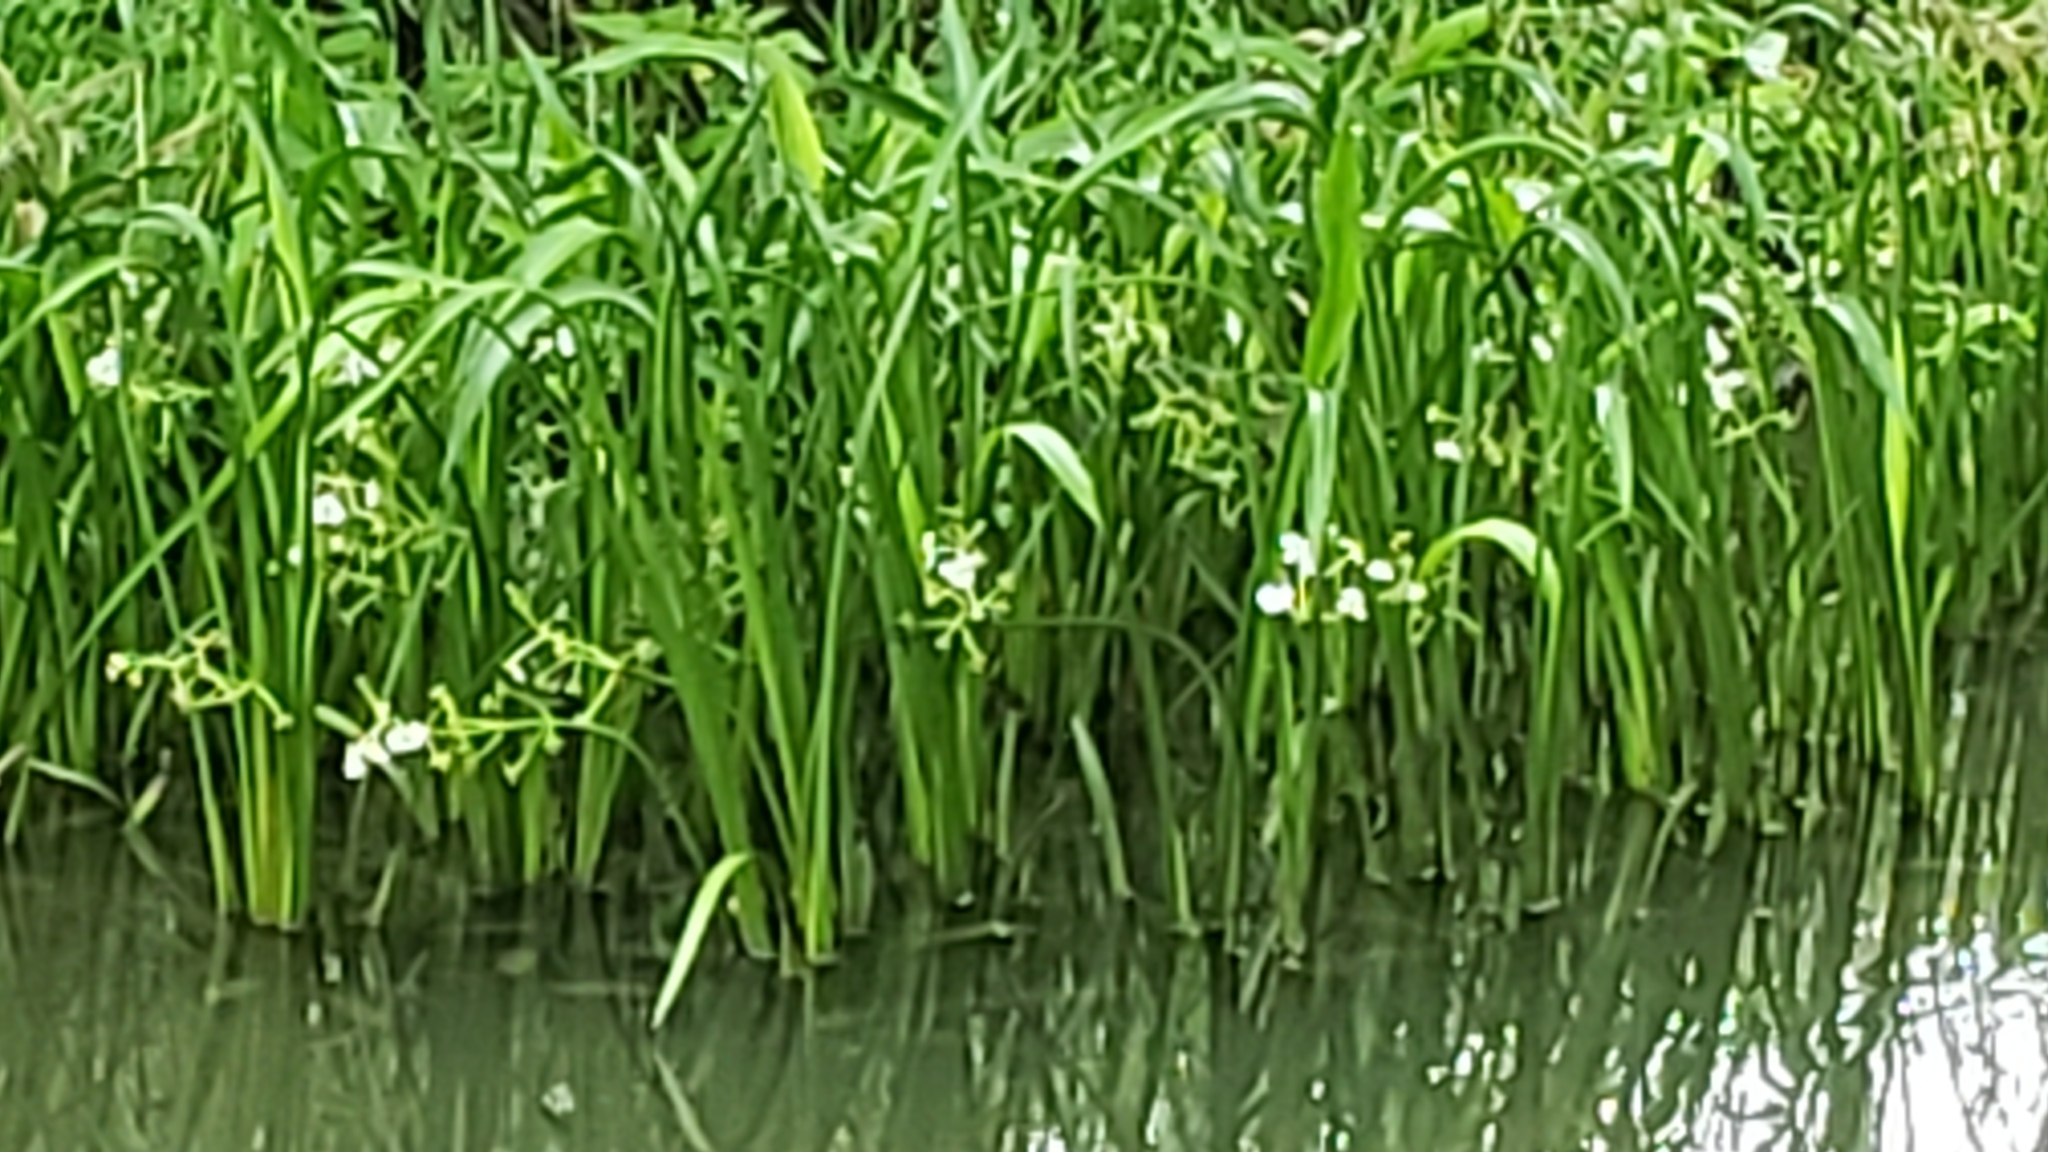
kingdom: Plantae
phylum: Tracheophyta
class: Liliopsida
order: Alismatales
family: Alismataceae
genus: Sagittaria
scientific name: Sagittaria platyphylla
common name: Broad-leaf arrowhead
